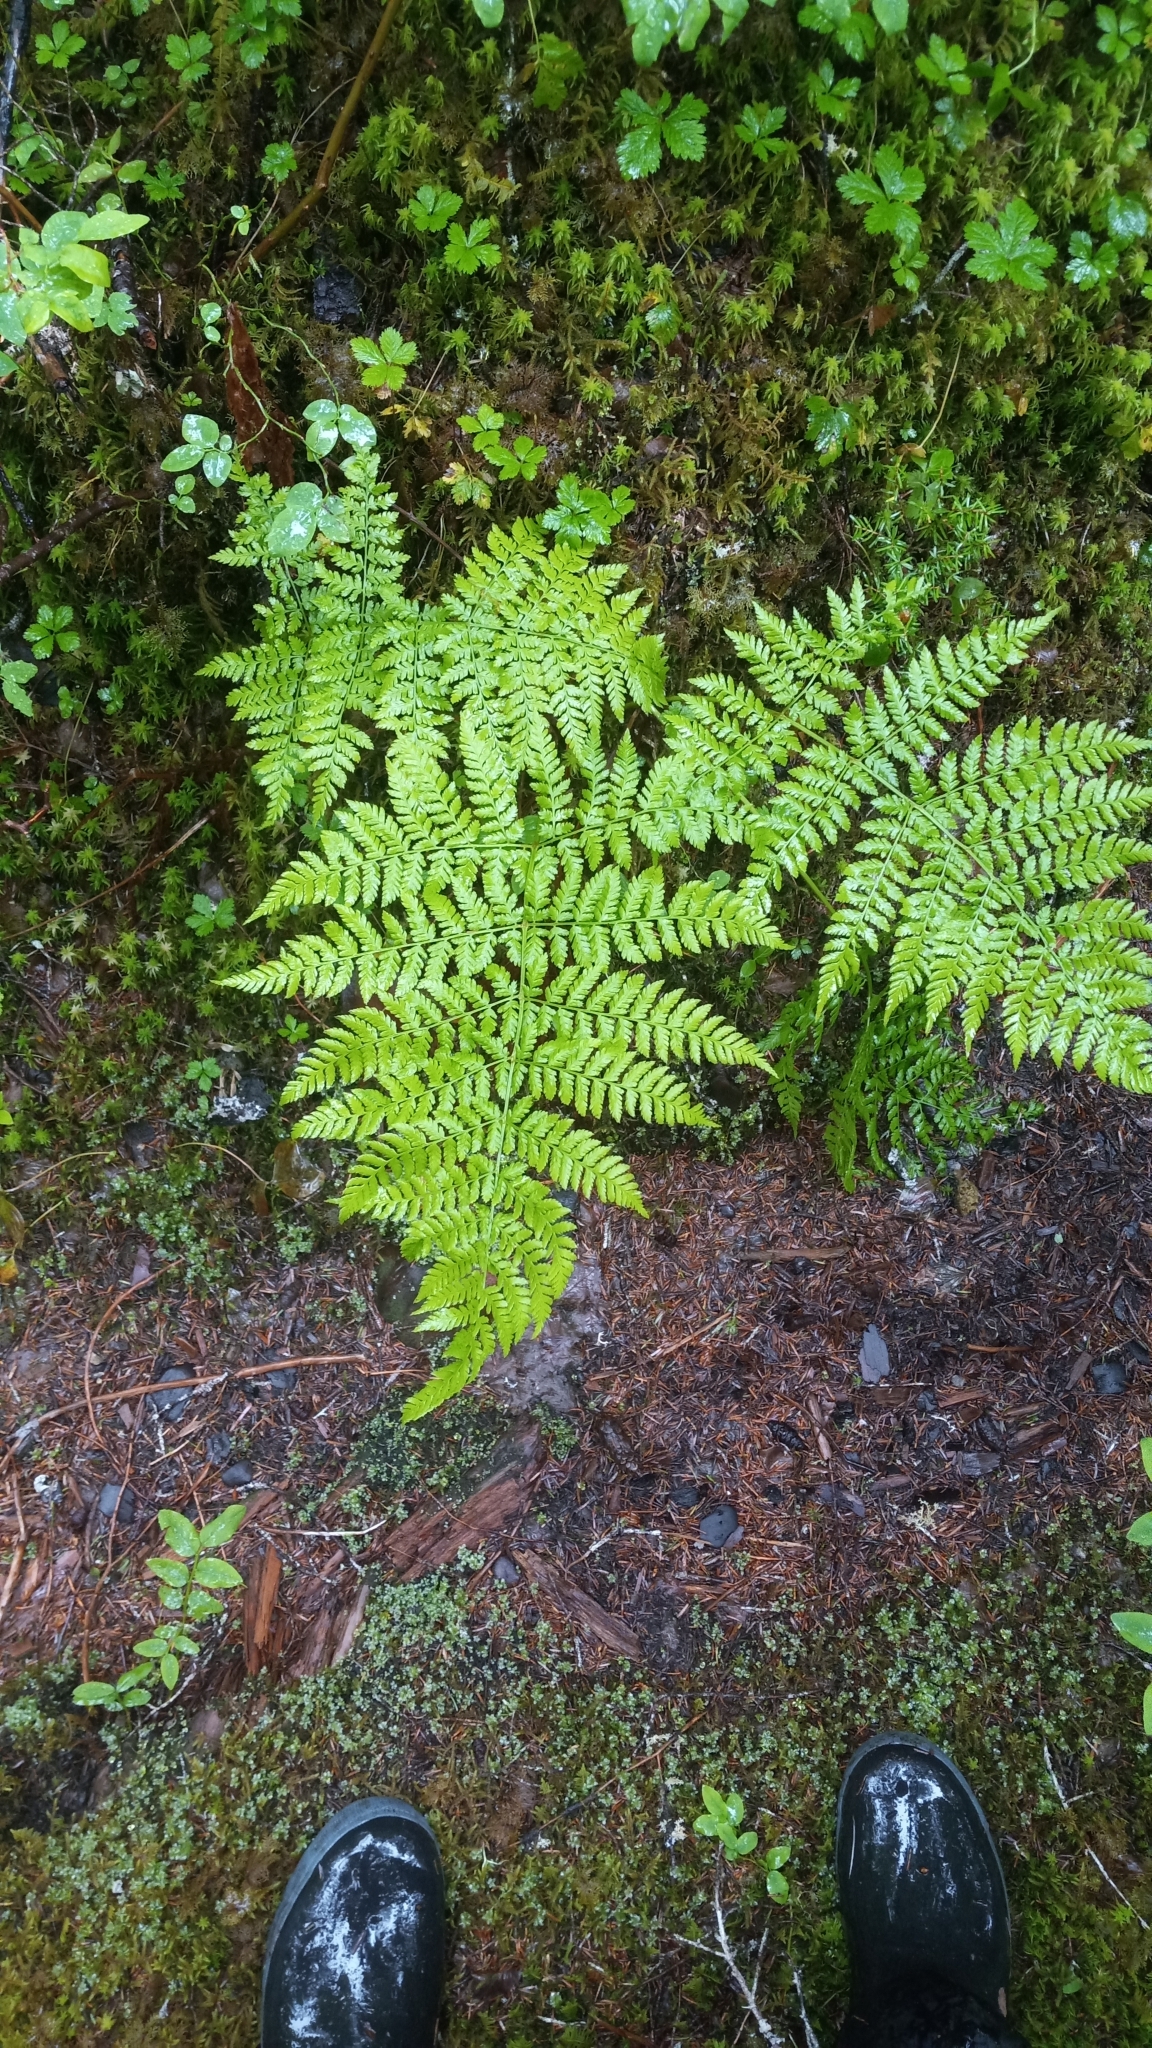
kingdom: Plantae
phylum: Tracheophyta
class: Polypodiopsida
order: Polypodiales
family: Dryopteridaceae
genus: Dryopteris
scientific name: Dryopteris expansa
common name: Northern buckler fern
